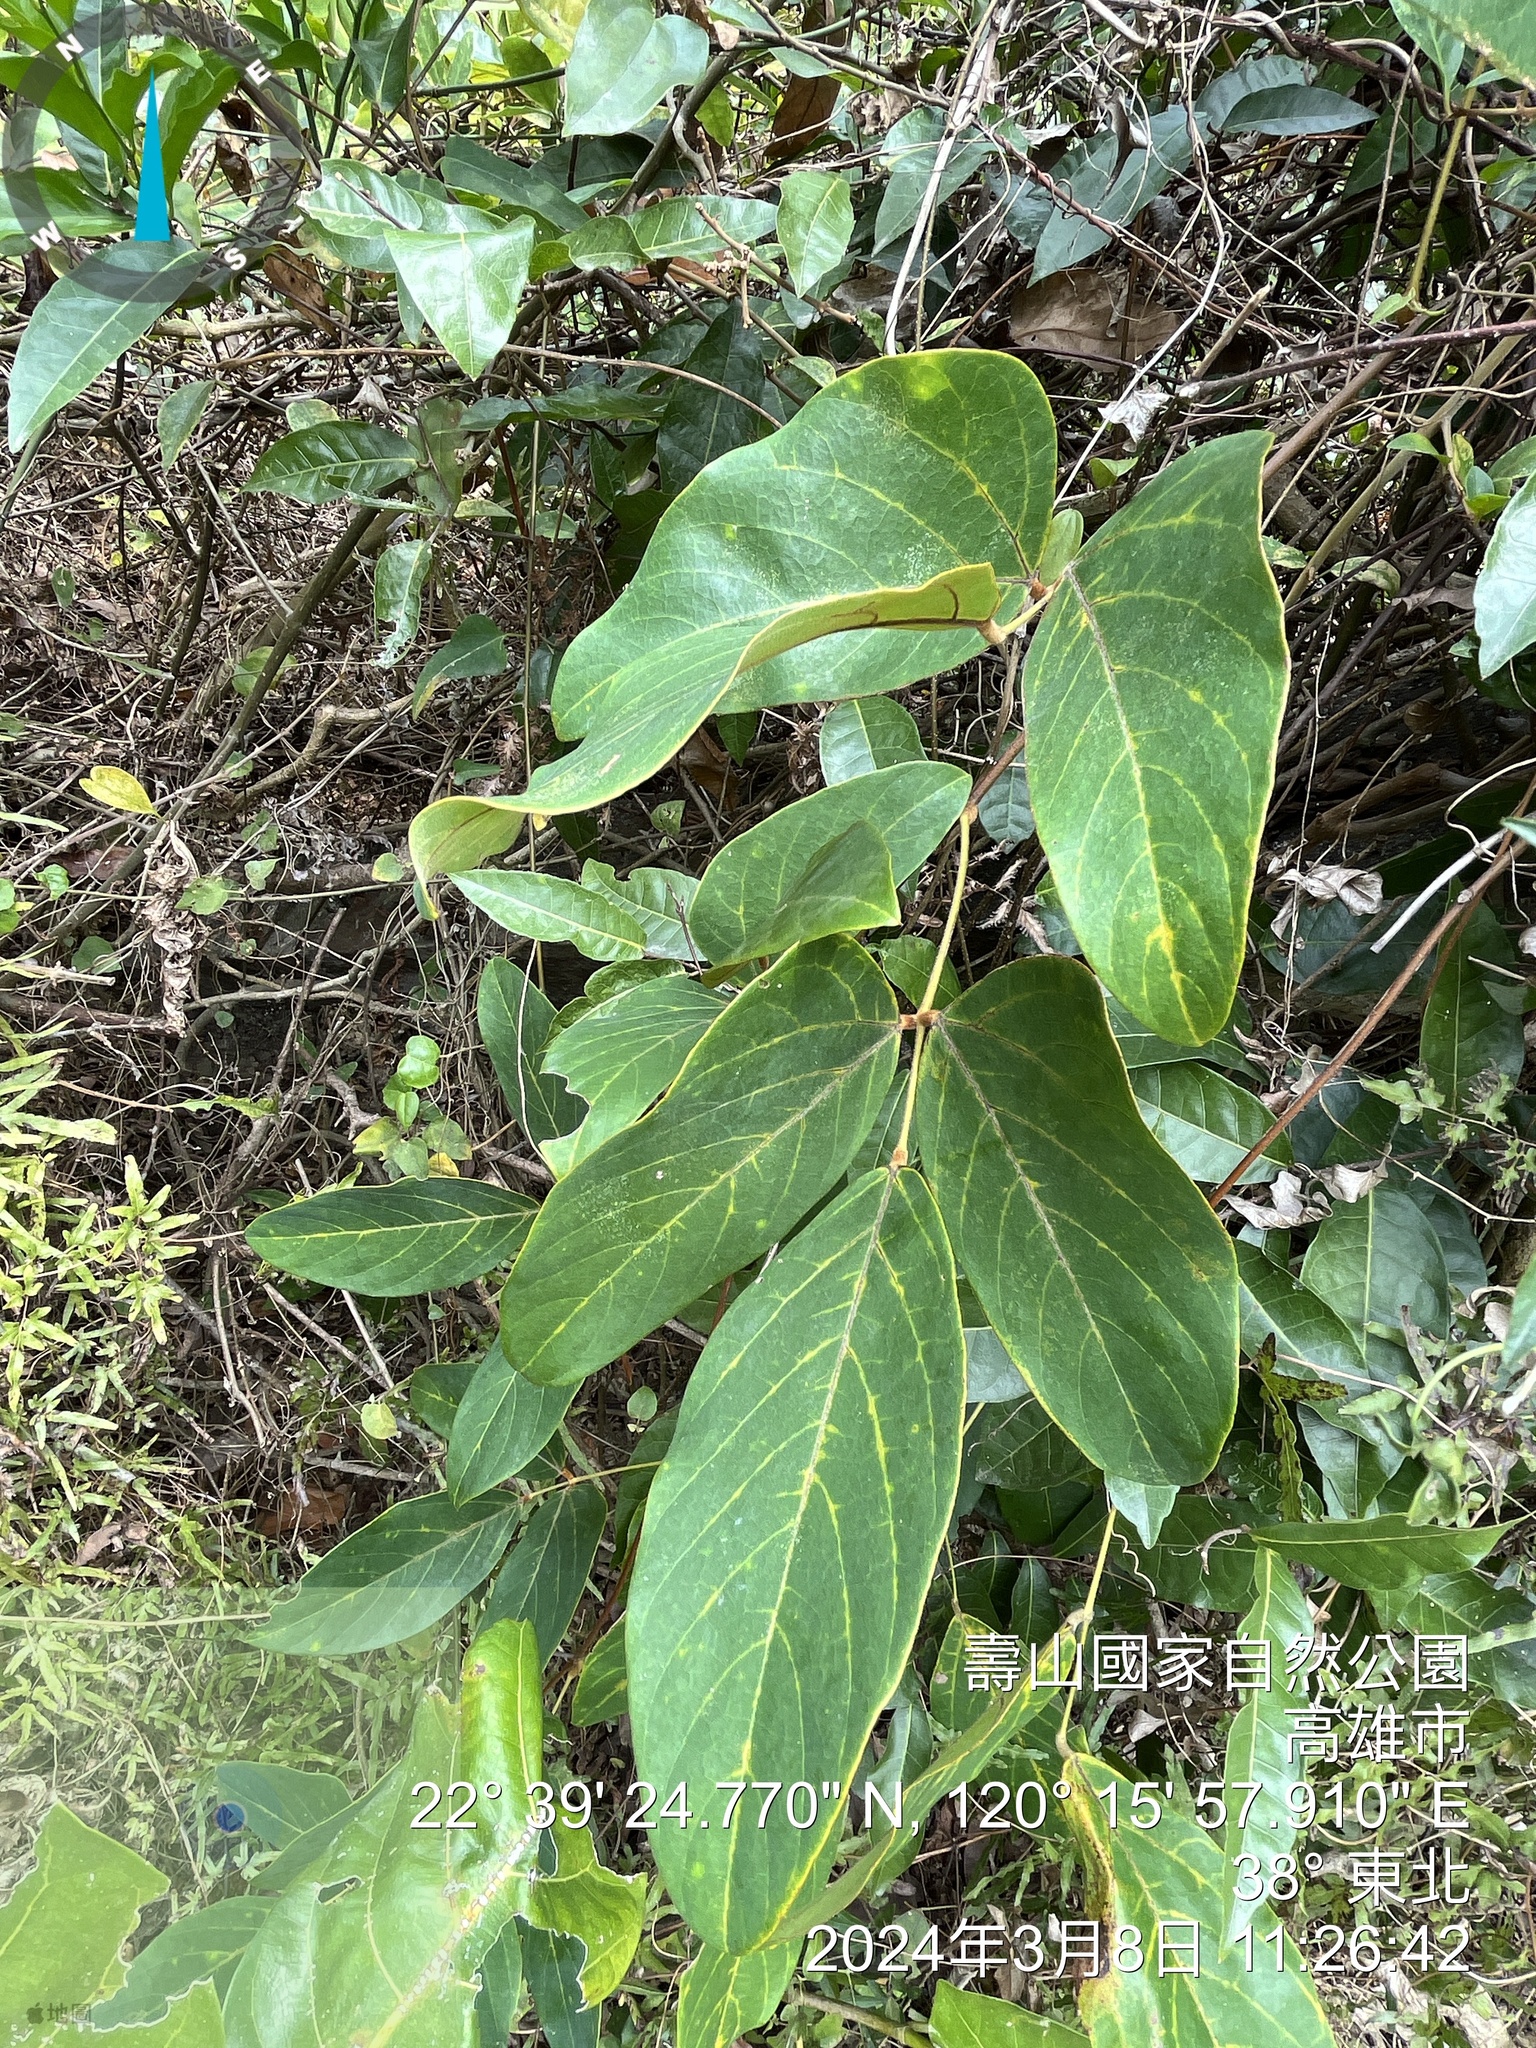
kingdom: Plantae
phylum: Tracheophyta
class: Magnoliopsida
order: Fabales
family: Fabaceae
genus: Mucuna
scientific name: Mucuna macrocarpa
